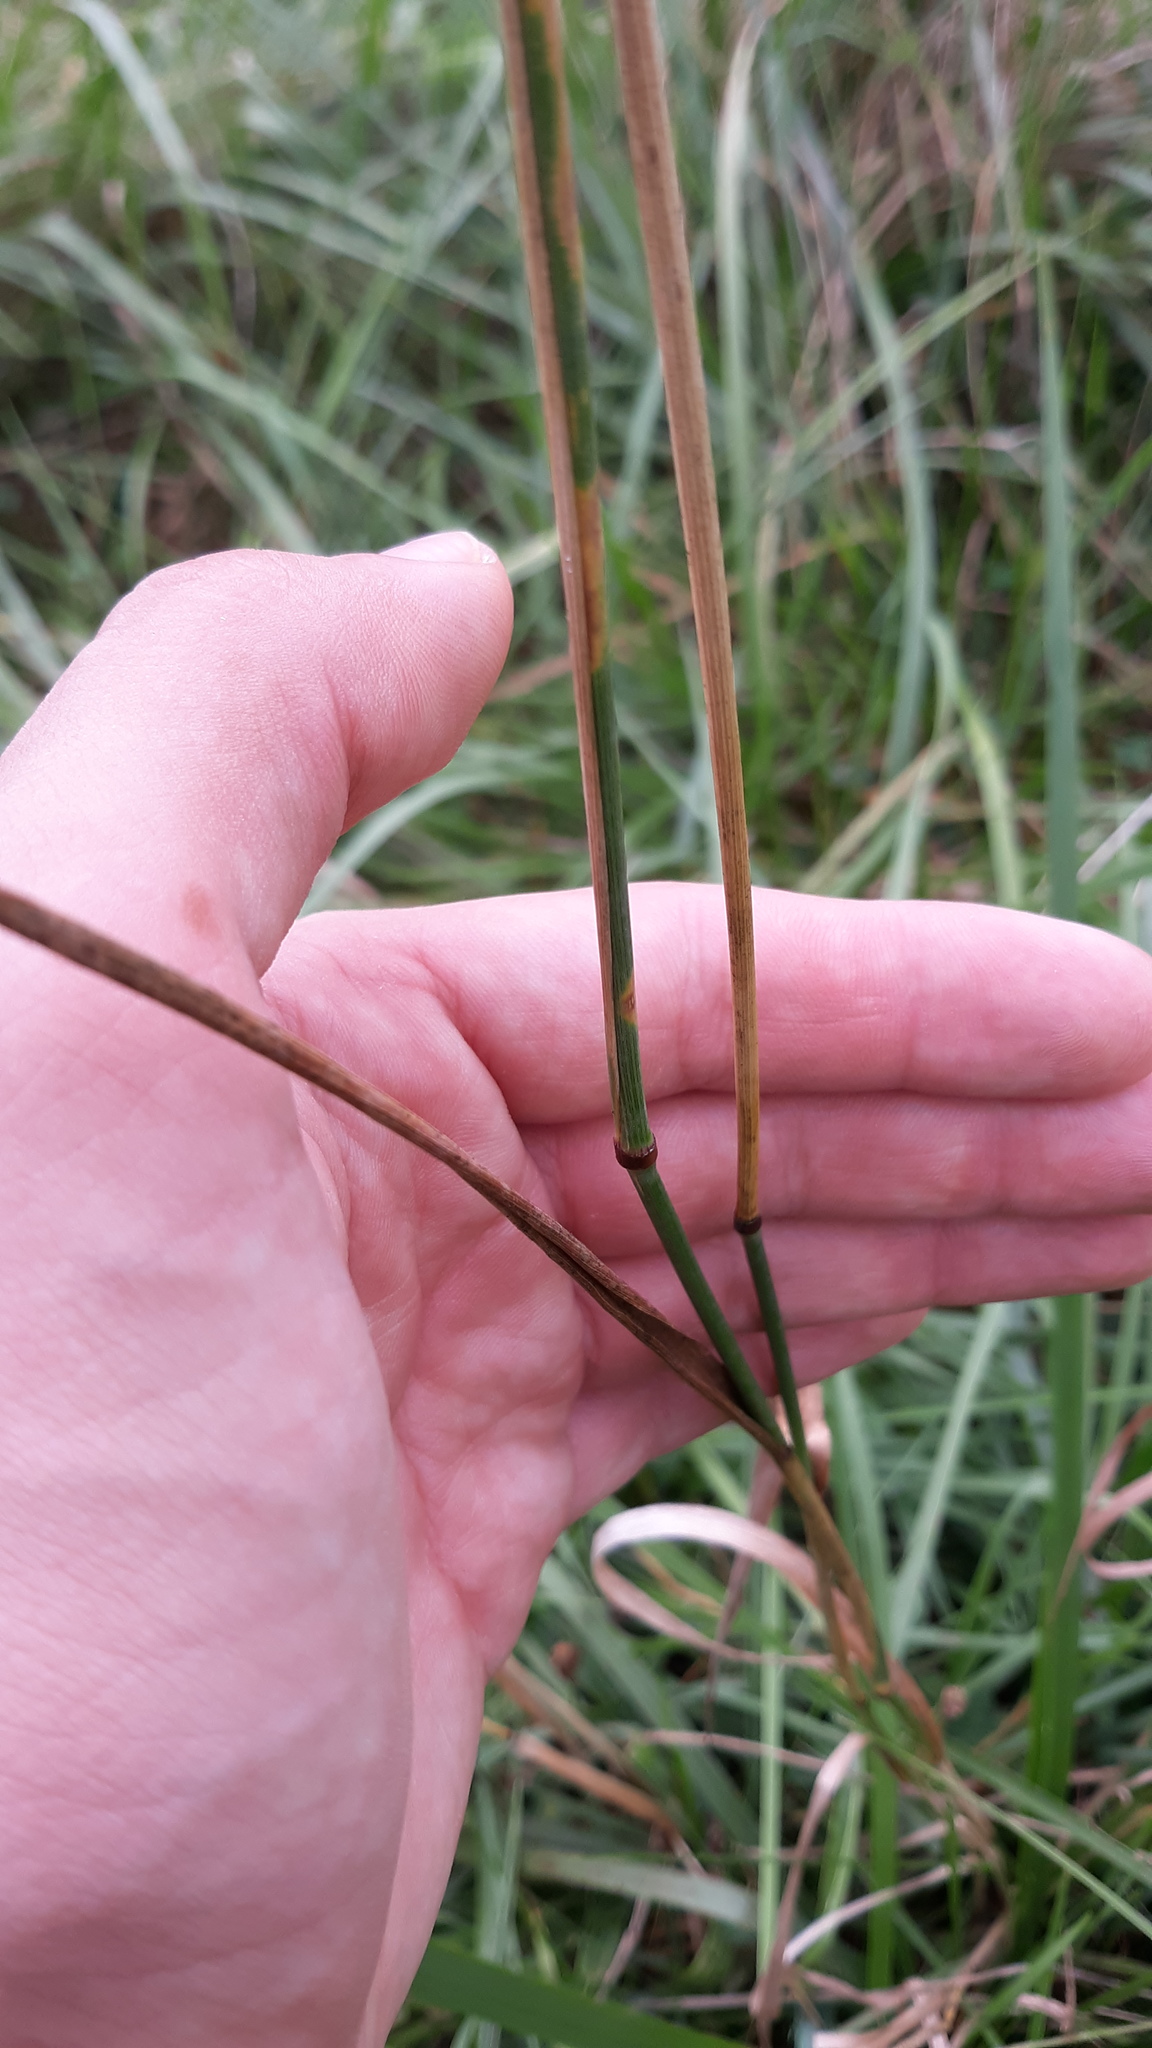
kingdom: Plantae
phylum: Tracheophyta
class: Liliopsida
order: Poales
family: Poaceae
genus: Phleum
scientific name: Phleum pratense
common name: Timothy grass
